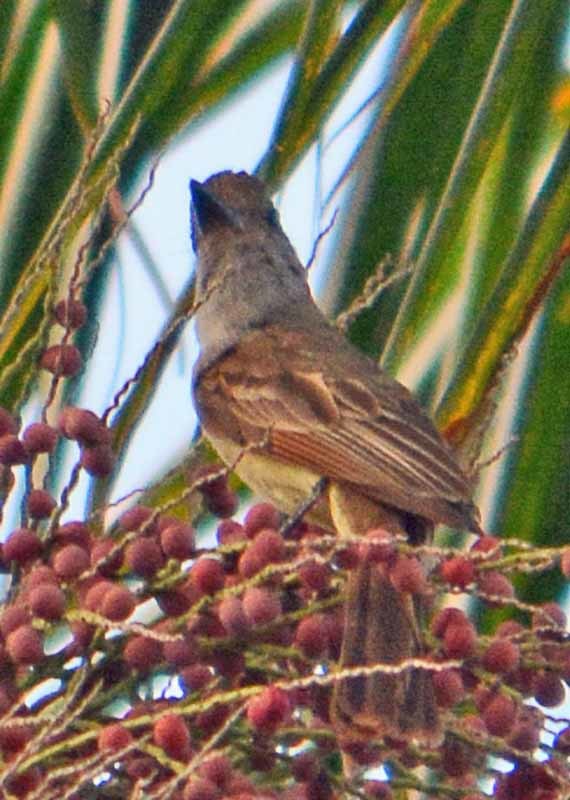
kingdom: Animalia
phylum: Chordata
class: Aves
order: Passeriformes
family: Tyrannidae
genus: Myiarchus
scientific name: Myiarchus tuberculifer
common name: Dusky-capped flycatcher
